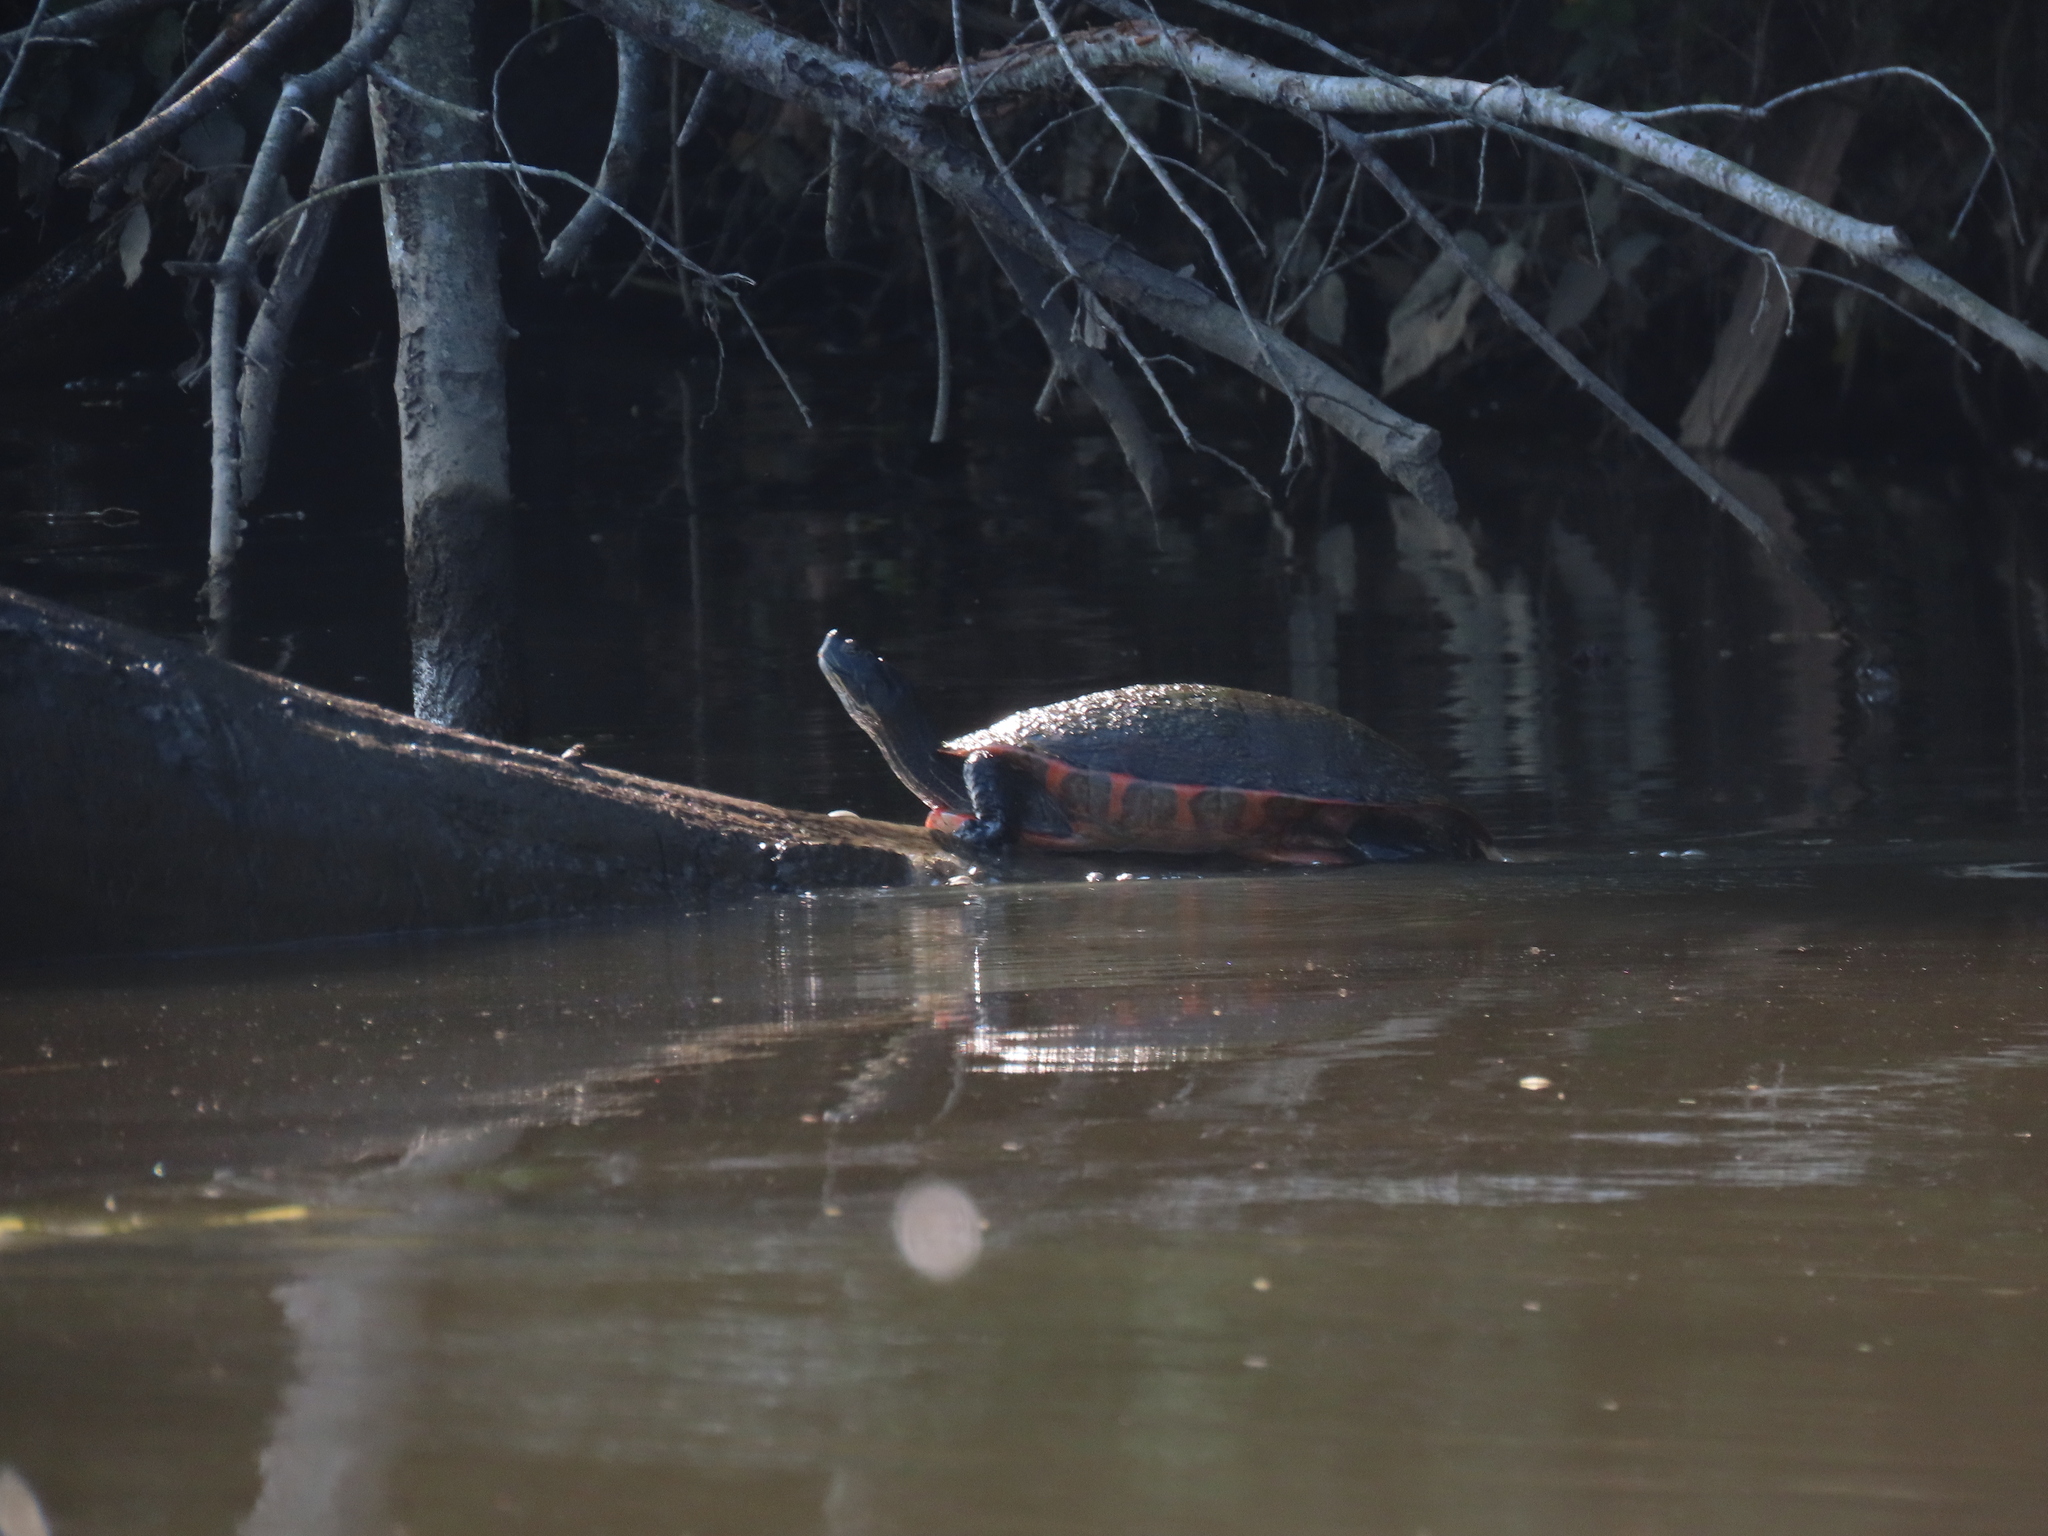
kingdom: Animalia
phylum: Chordata
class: Testudines
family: Emydidae
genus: Pseudemys
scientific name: Pseudemys rubriventris
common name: American red-bellied turtle
